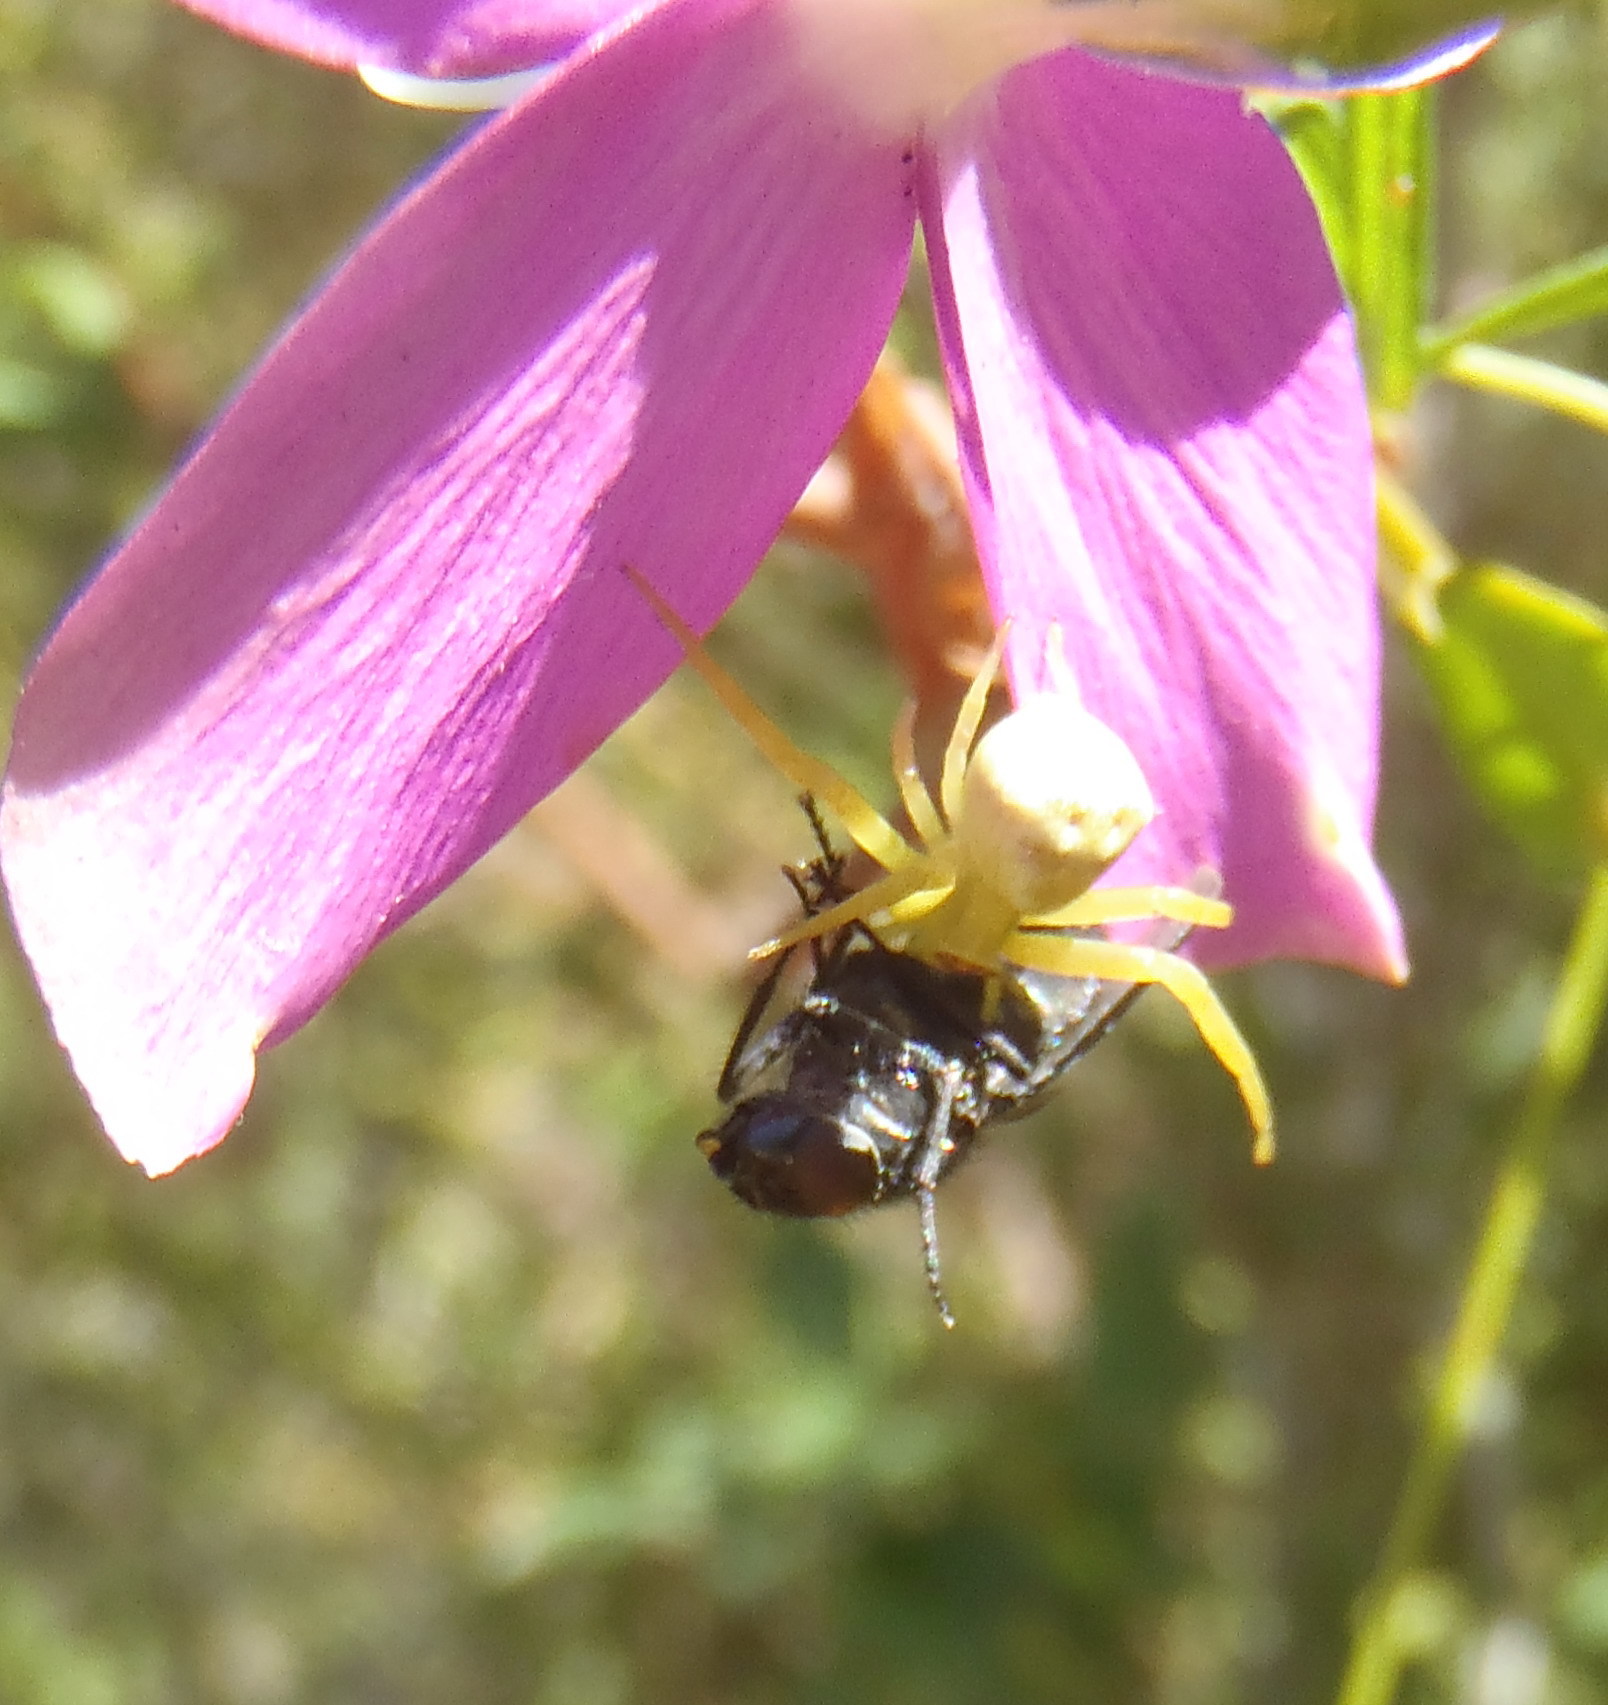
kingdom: Animalia
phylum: Arthropoda
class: Arachnida
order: Araneae
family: Thomisidae
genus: Thomisus
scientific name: Thomisus stenningi
